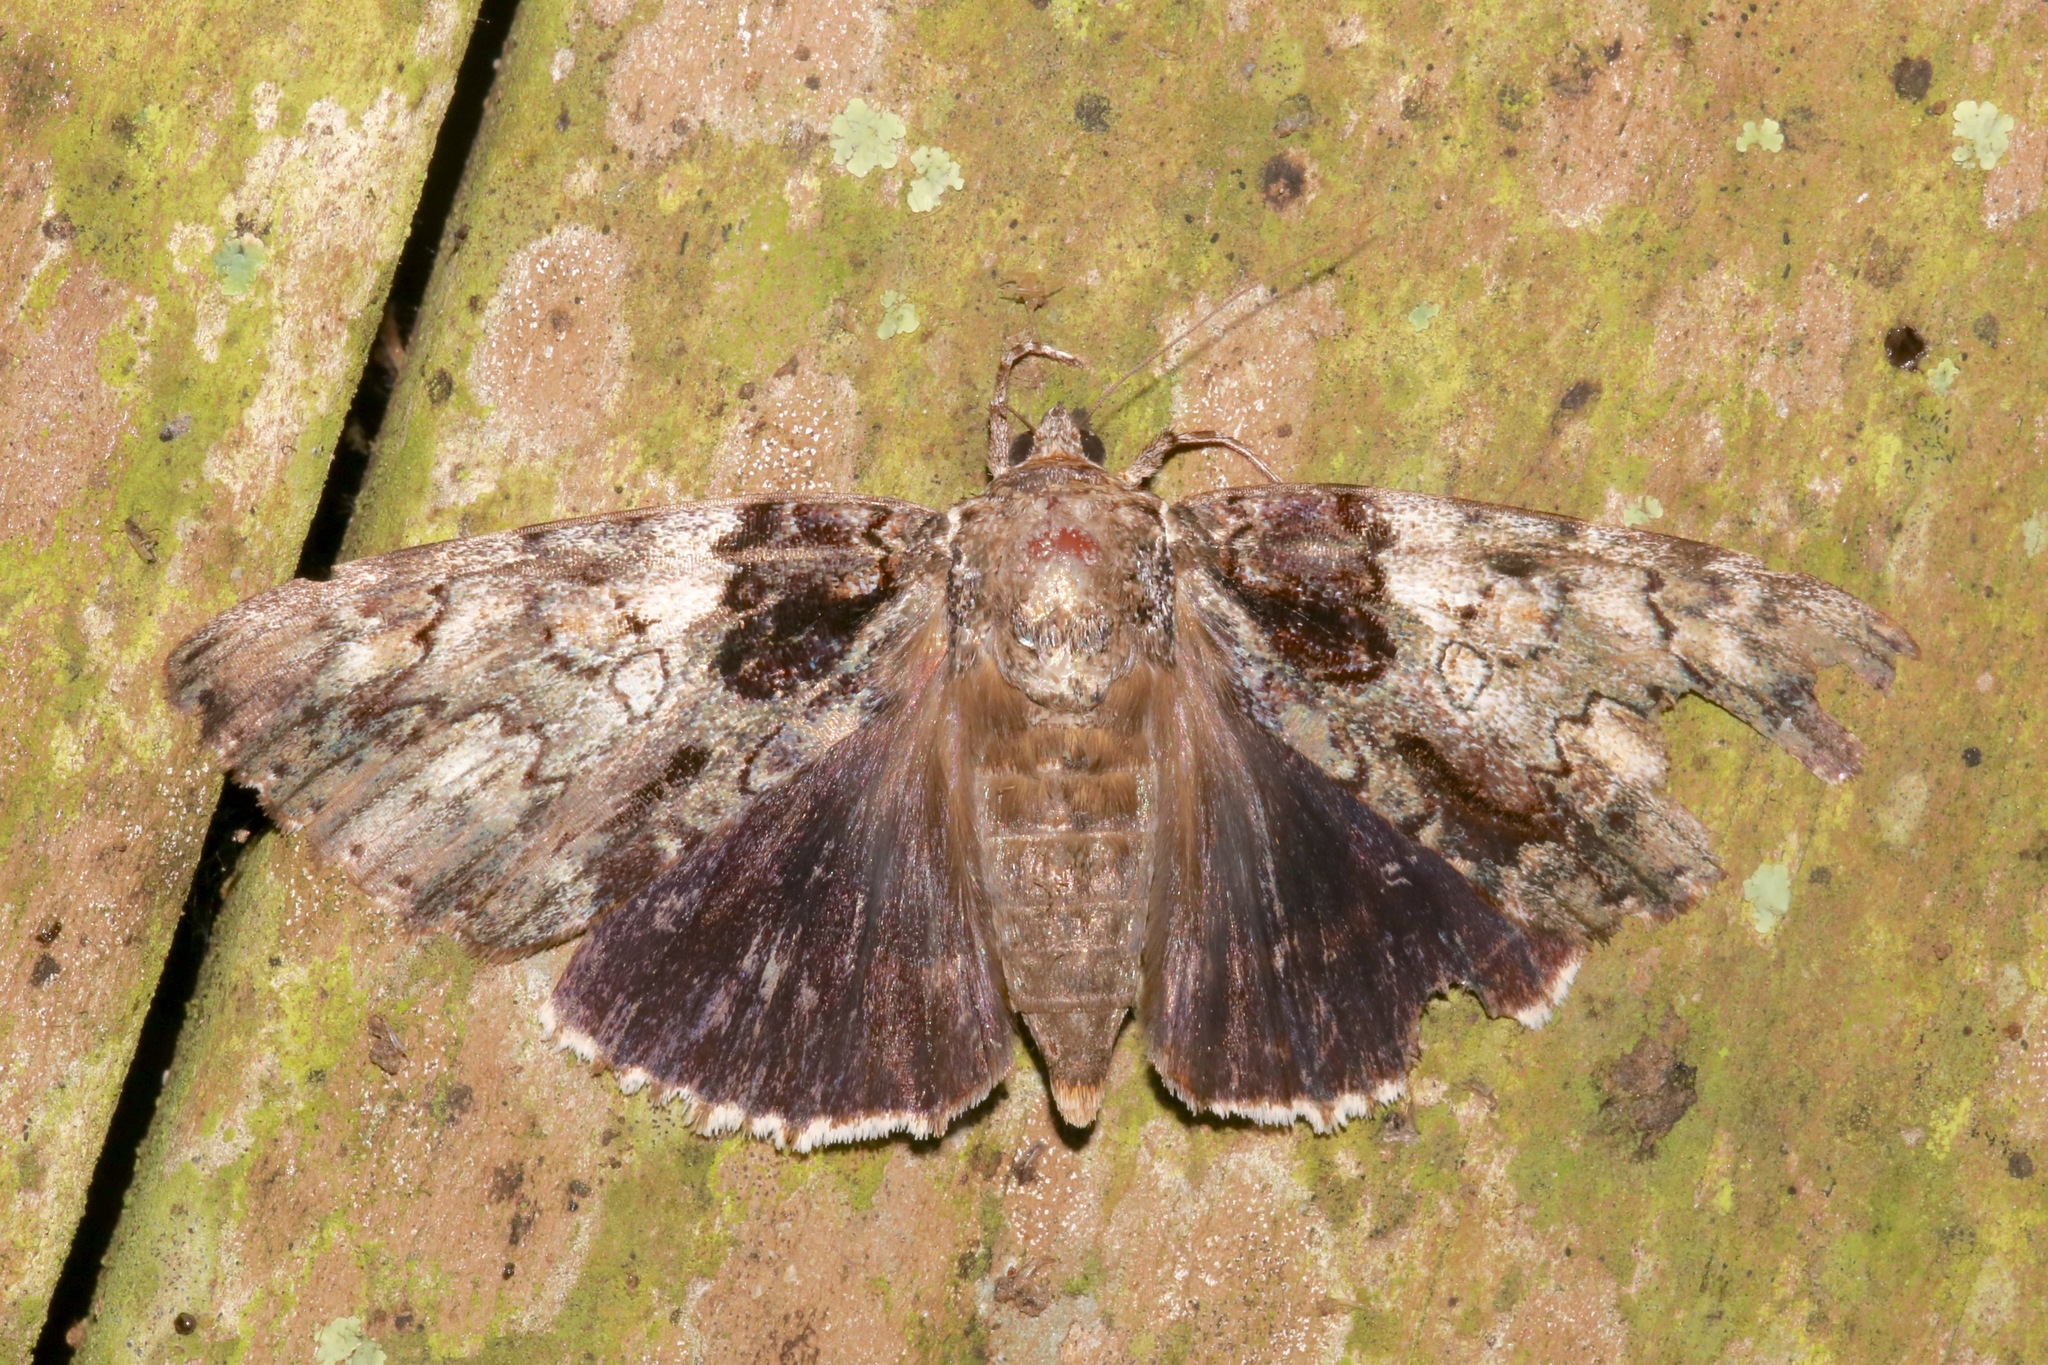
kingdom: Animalia
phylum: Arthropoda
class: Insecta
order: Lepidoptera
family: Erebidae
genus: Catocala
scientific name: Catocala lacrymosa
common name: Tearful underwing
